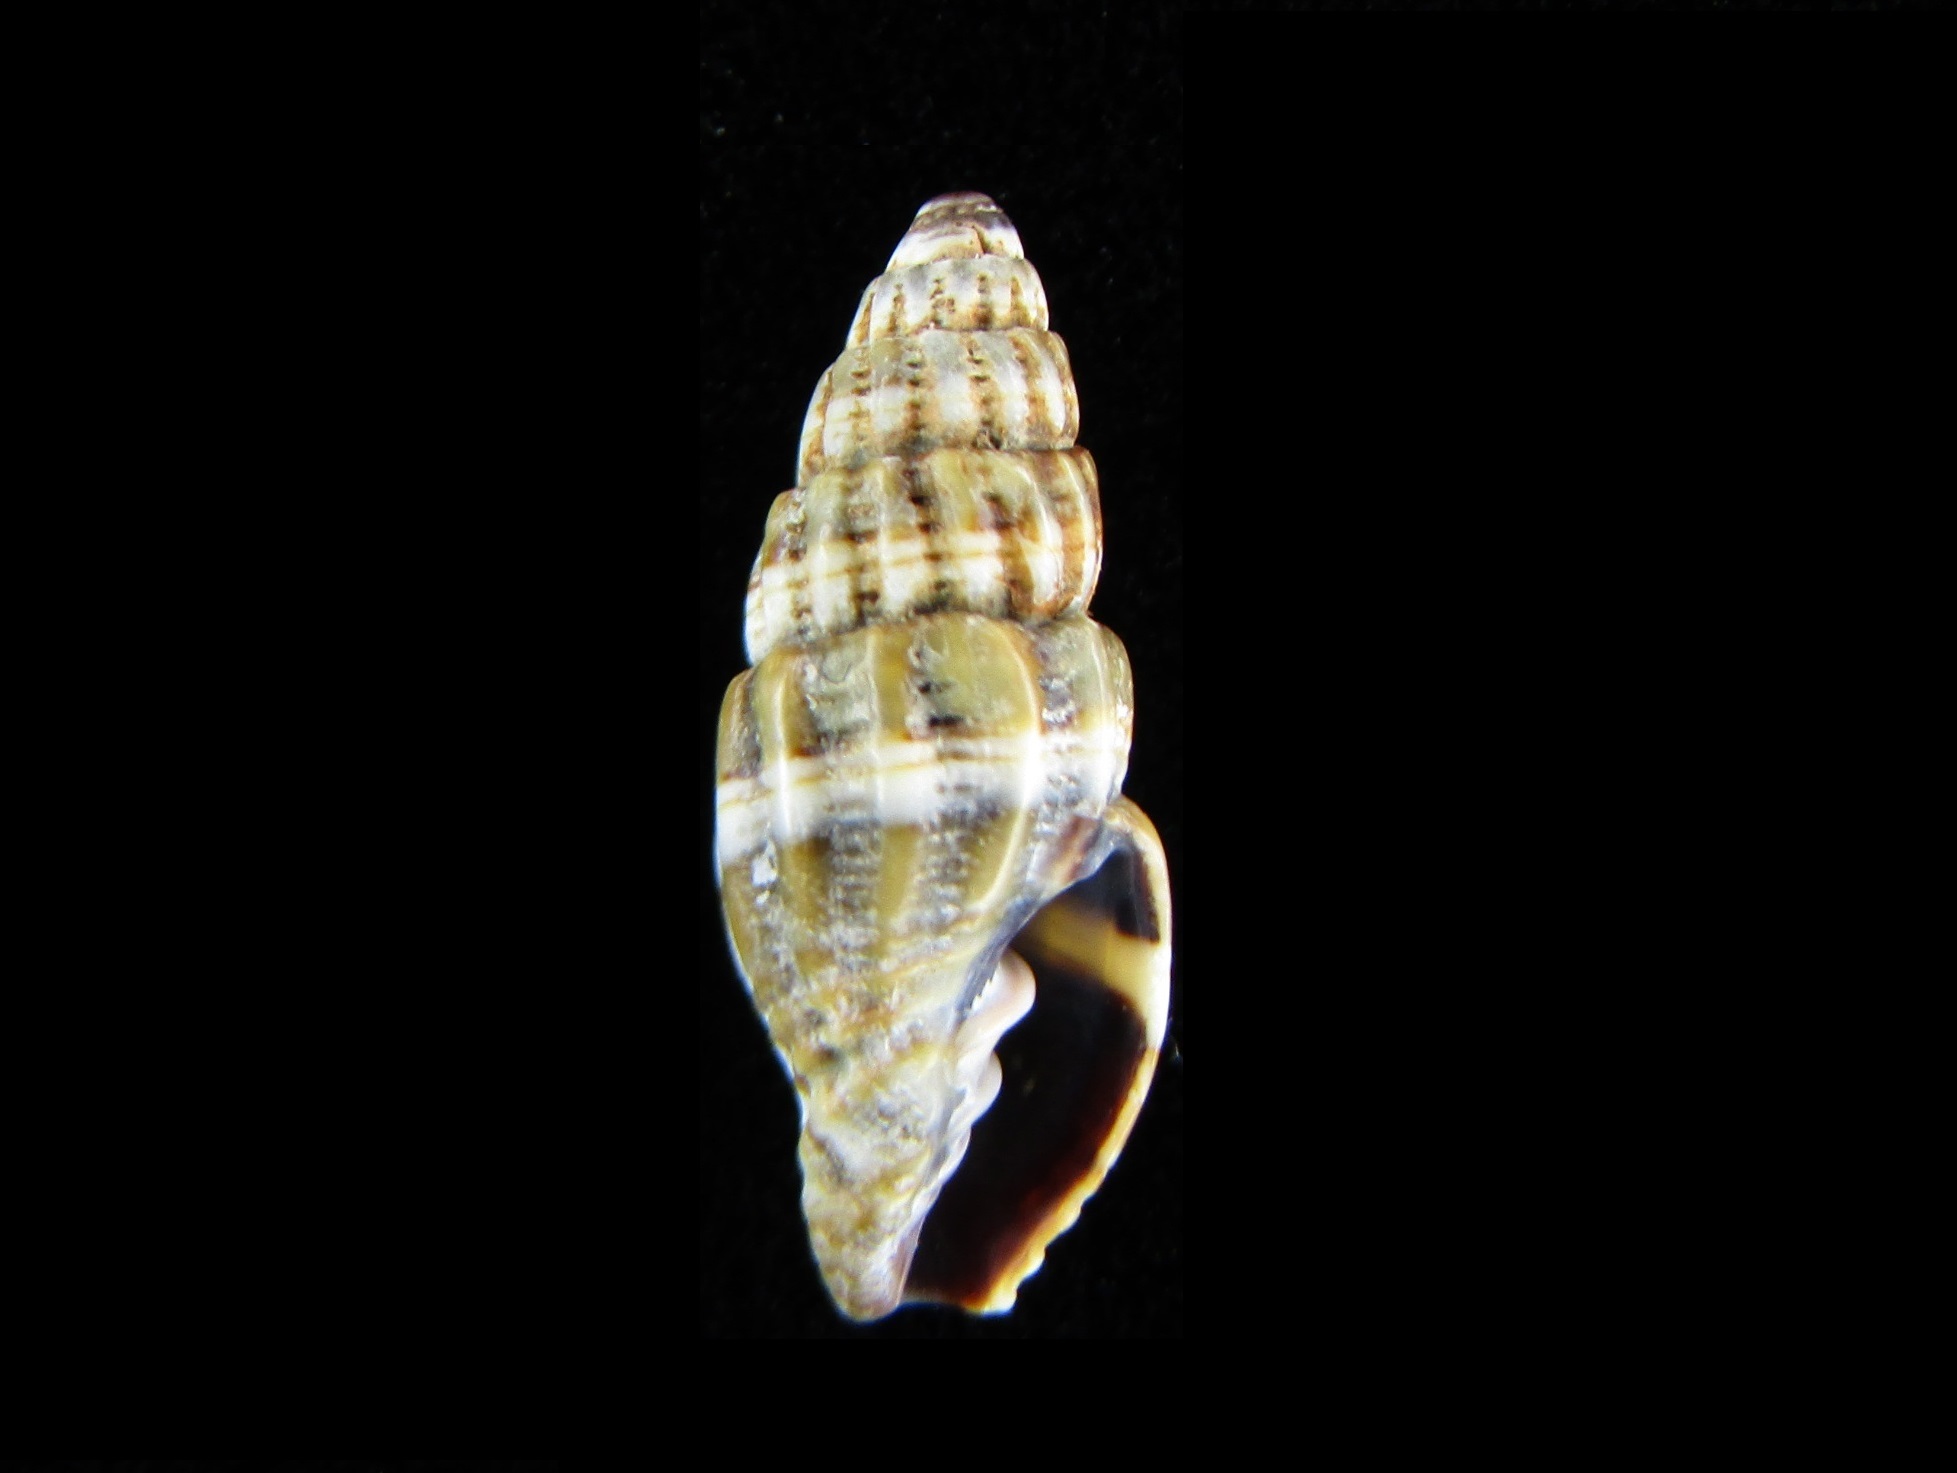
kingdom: Animalia
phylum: Mollusca
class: Gastropoda
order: Neogastropoda
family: Costellariidae
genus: Vexillum
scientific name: Vexillum daedalum
